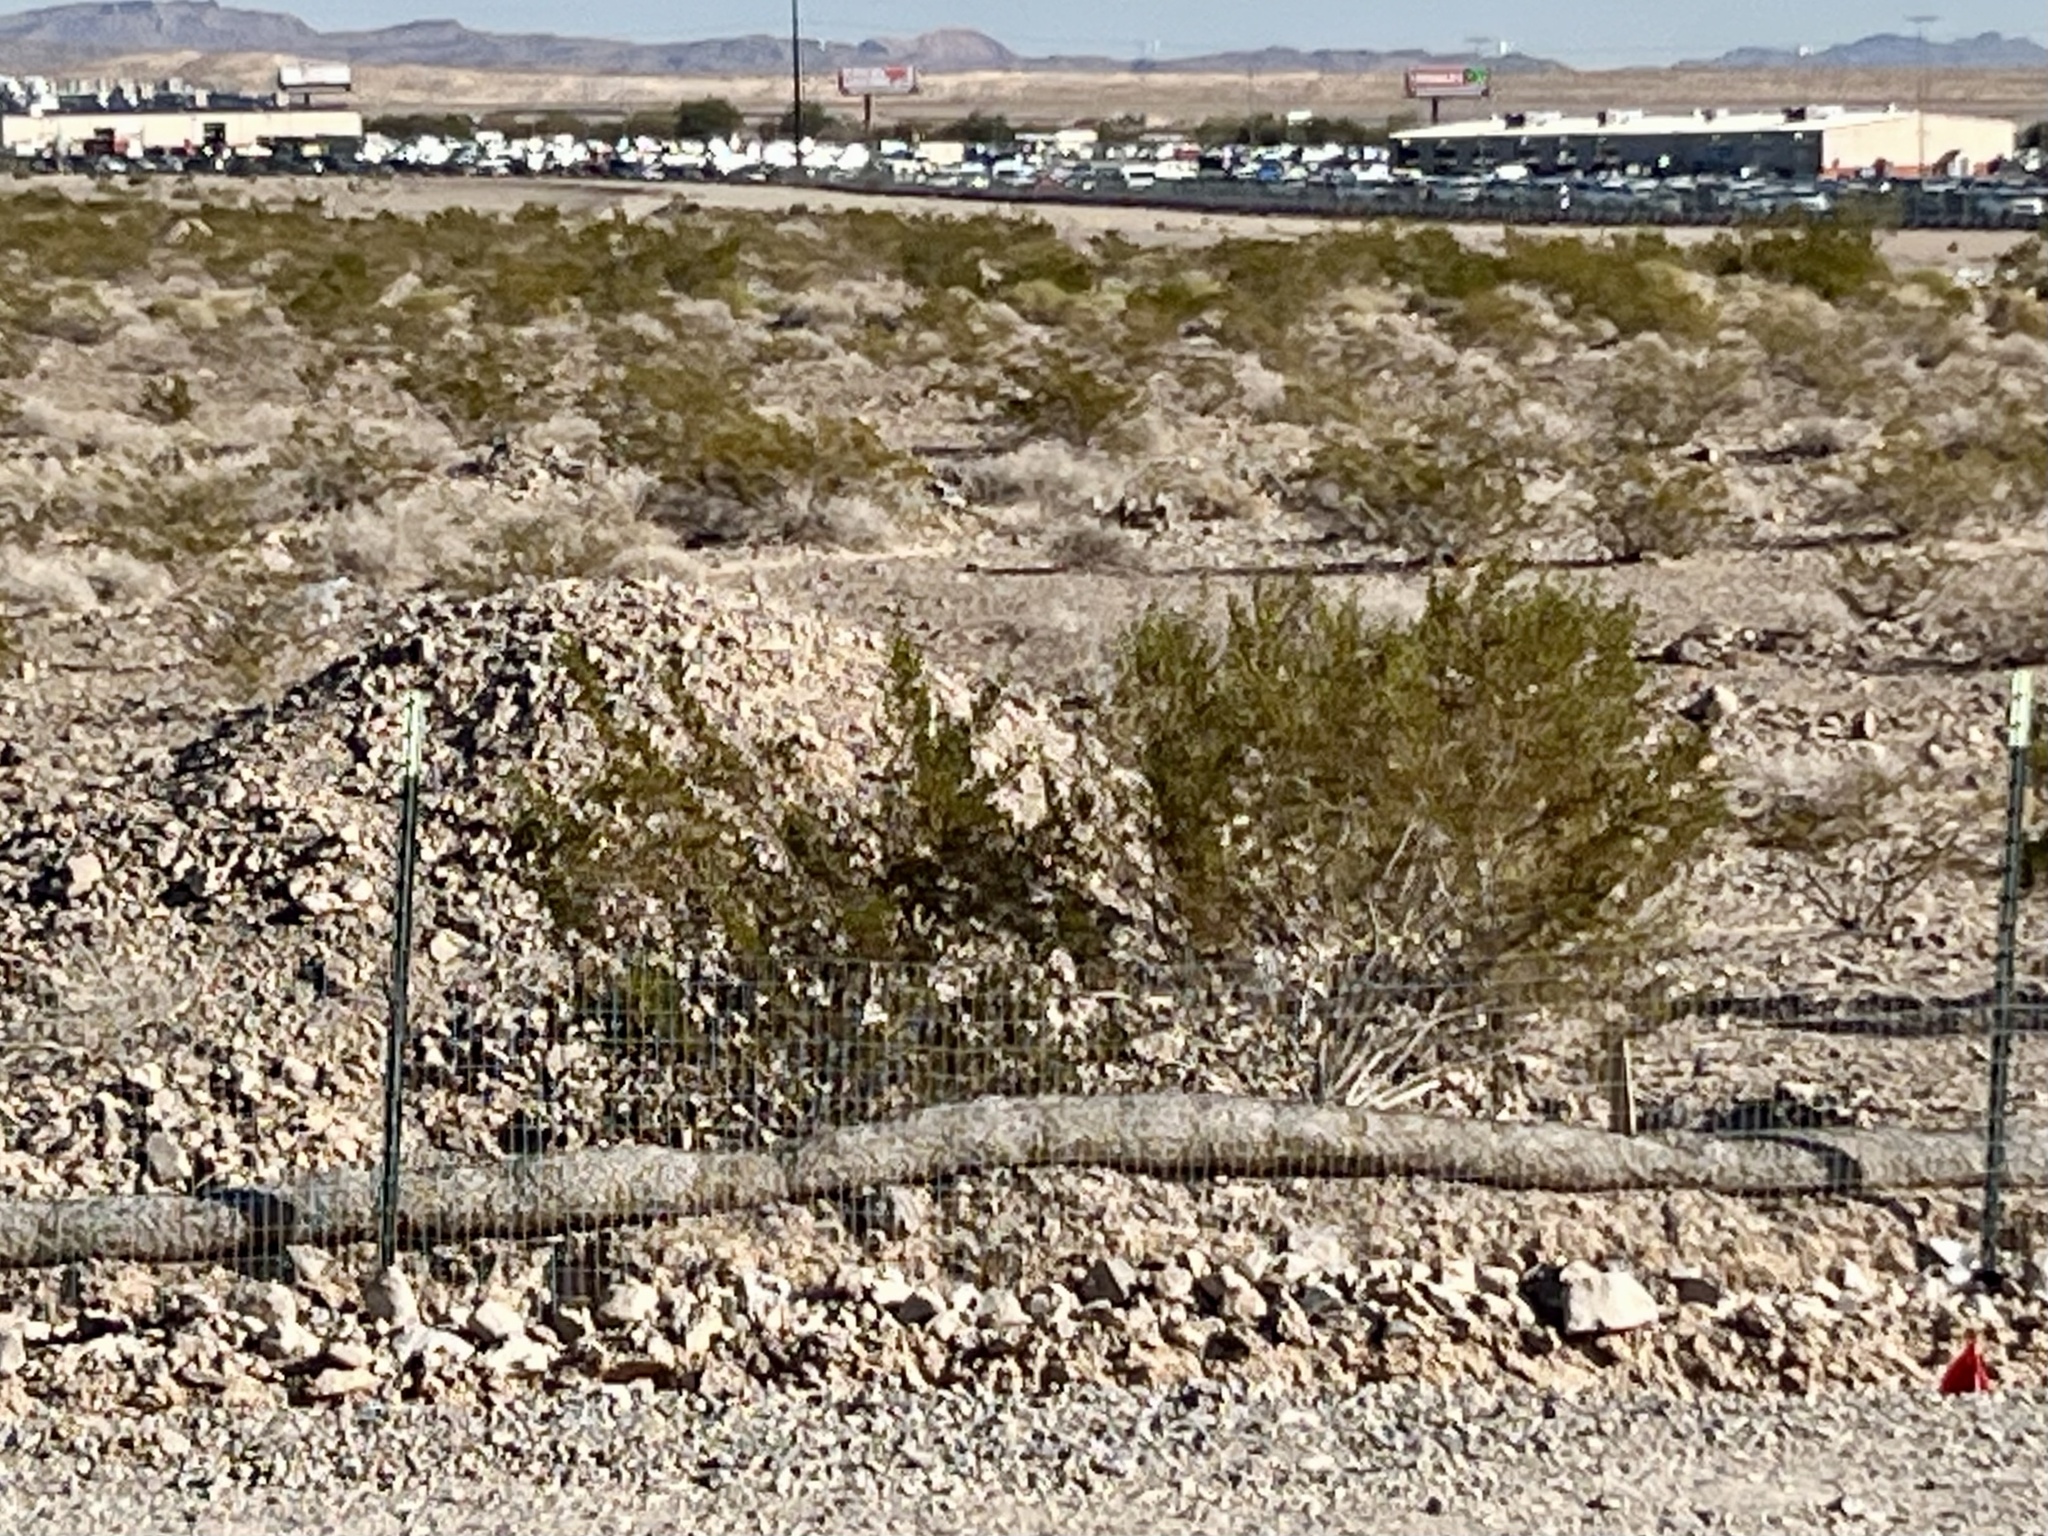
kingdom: Plantae
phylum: Tracheophyta
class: Magnoliopsida
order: Zygophyllales
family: Zygophyllaceae
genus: Larrea
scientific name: Larrea tridentata
